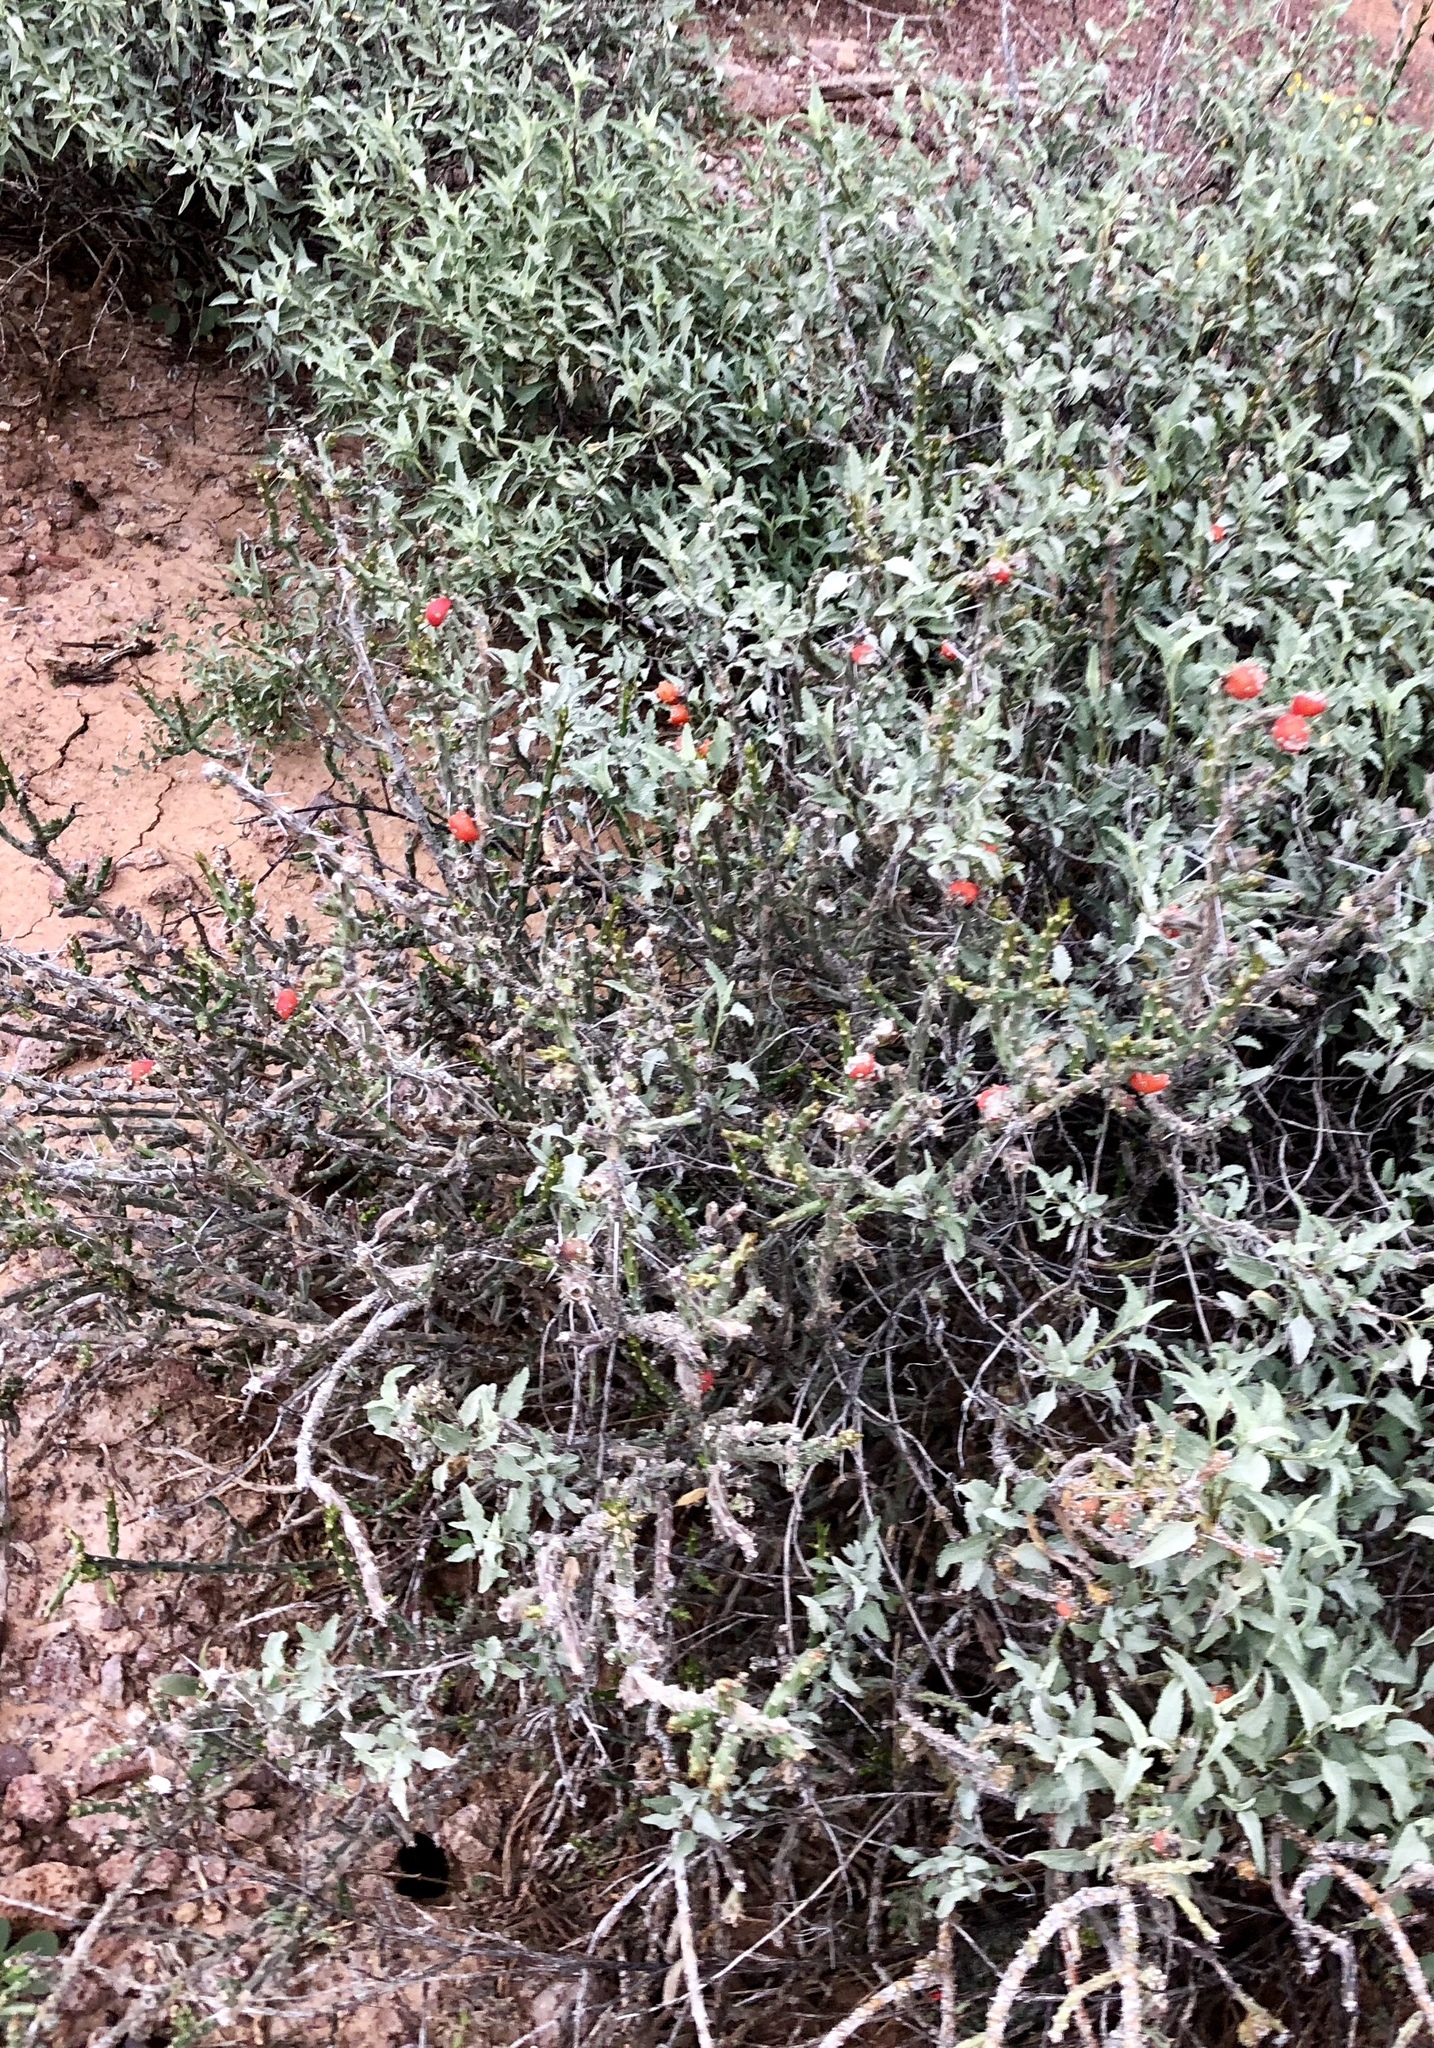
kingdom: Plantae
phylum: Tracheophyta
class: Magnoliopsida
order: Caryophyllales
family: Cactaceae
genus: Cylindropuntia
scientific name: Cylindropuntia leptocaulis
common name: Christmas cactus
